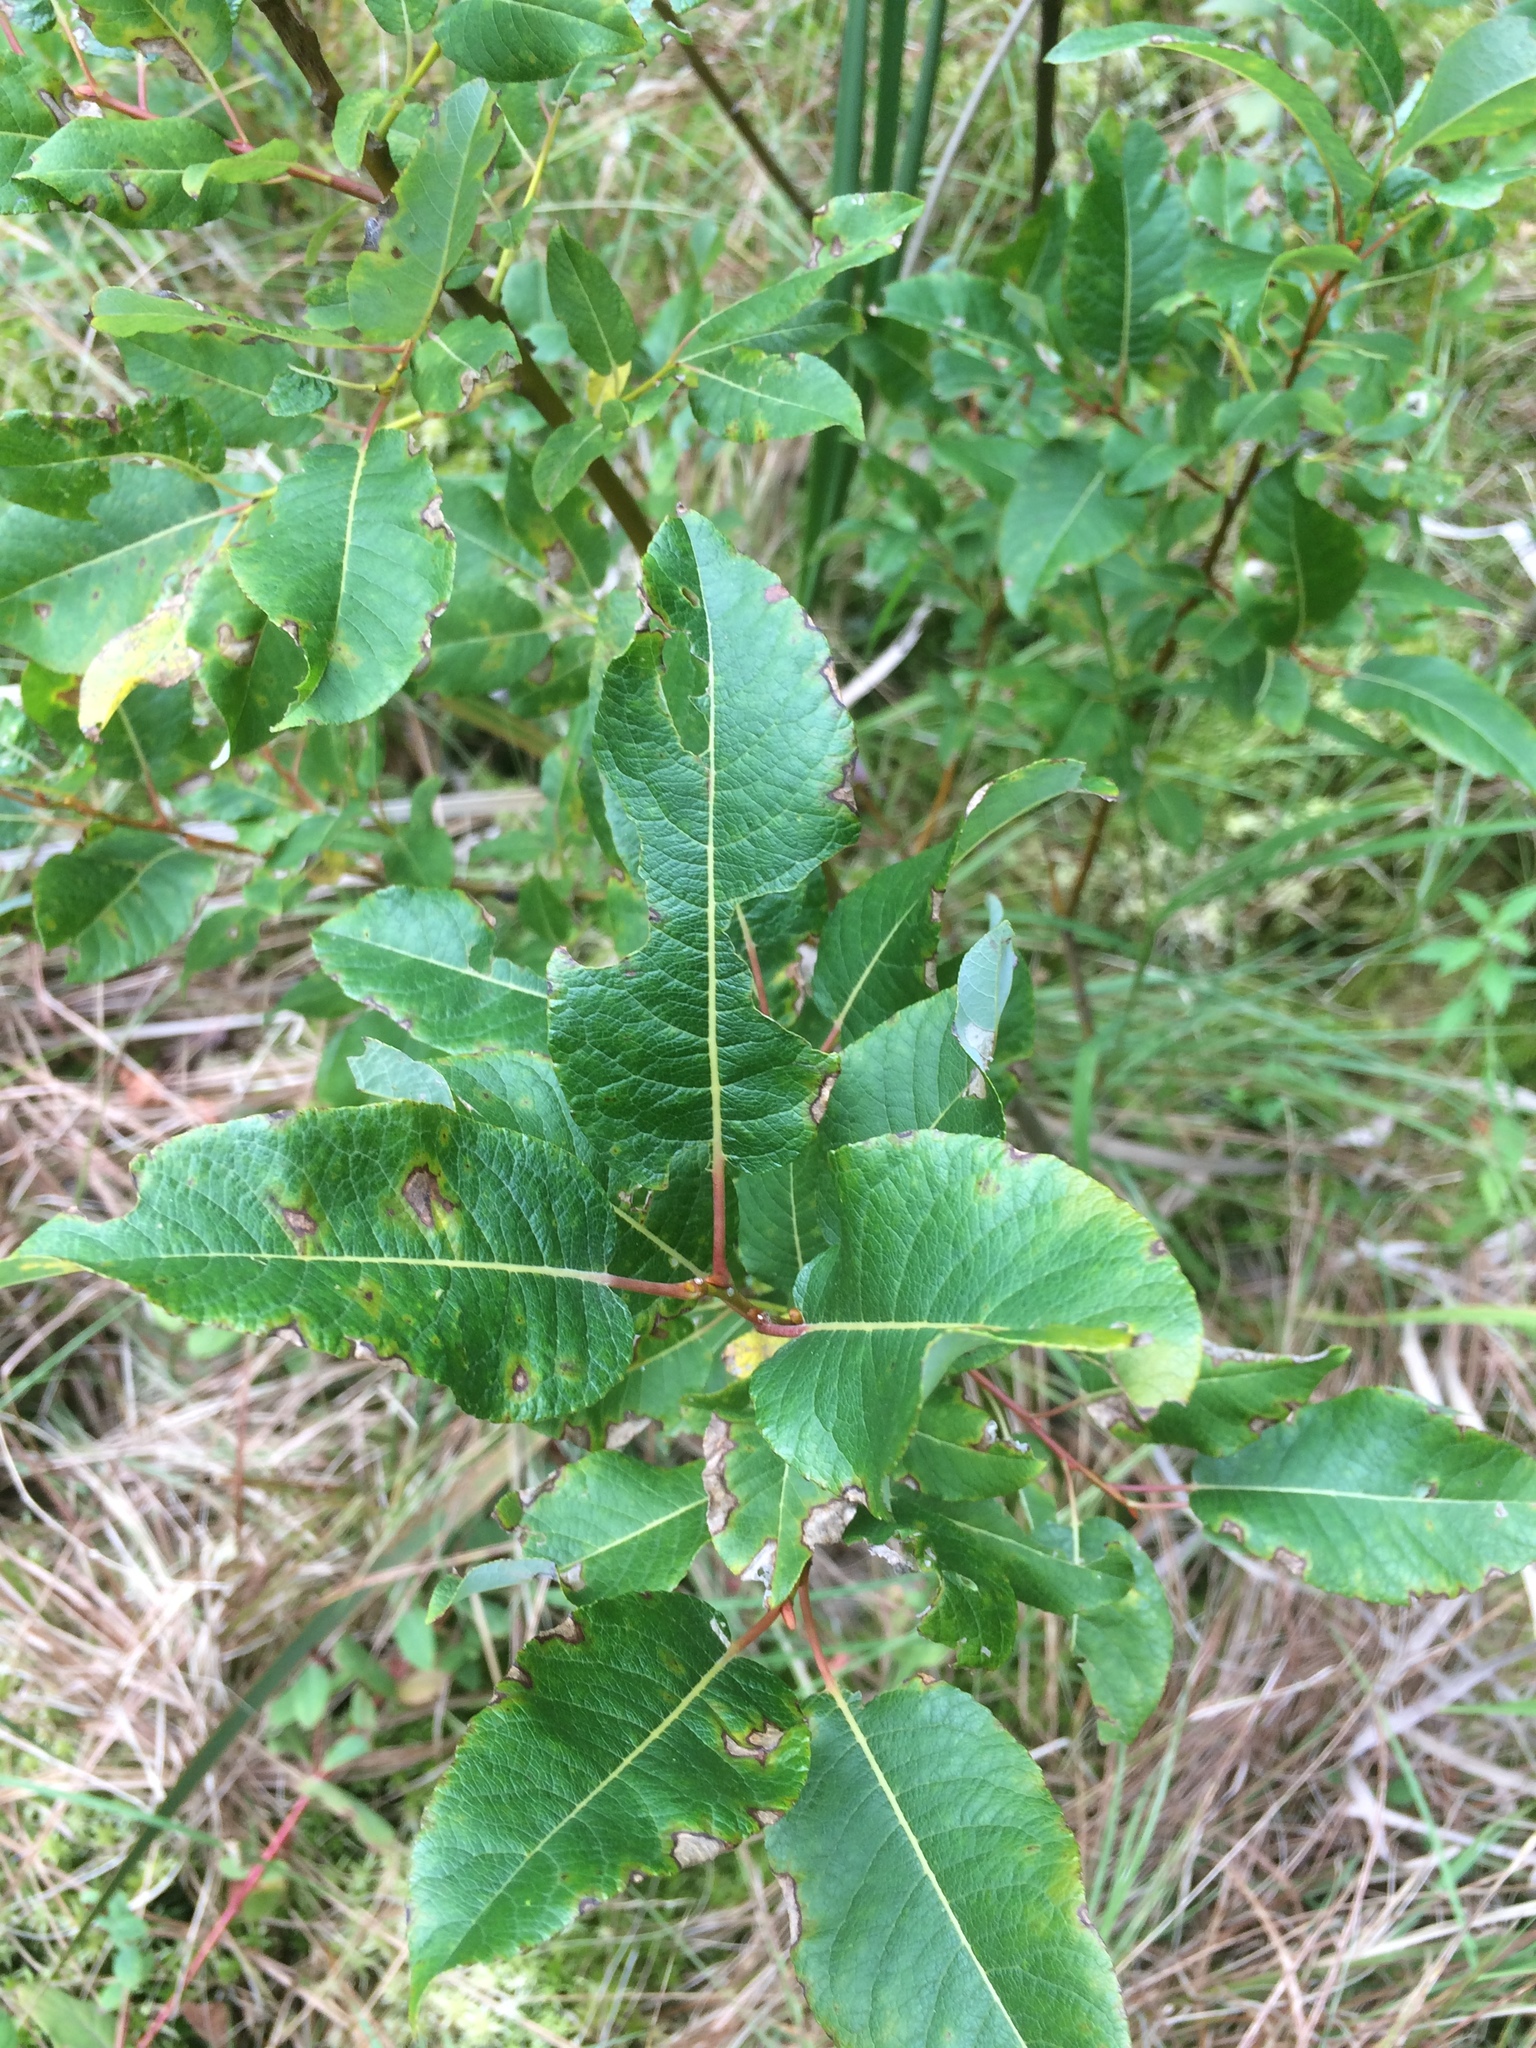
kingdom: Plantae
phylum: Tracheophyta
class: Magnoliopsida
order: Malpighiales
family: Salicaceae
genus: Salix
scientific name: Salix pyrifolia
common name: Balsam willow
